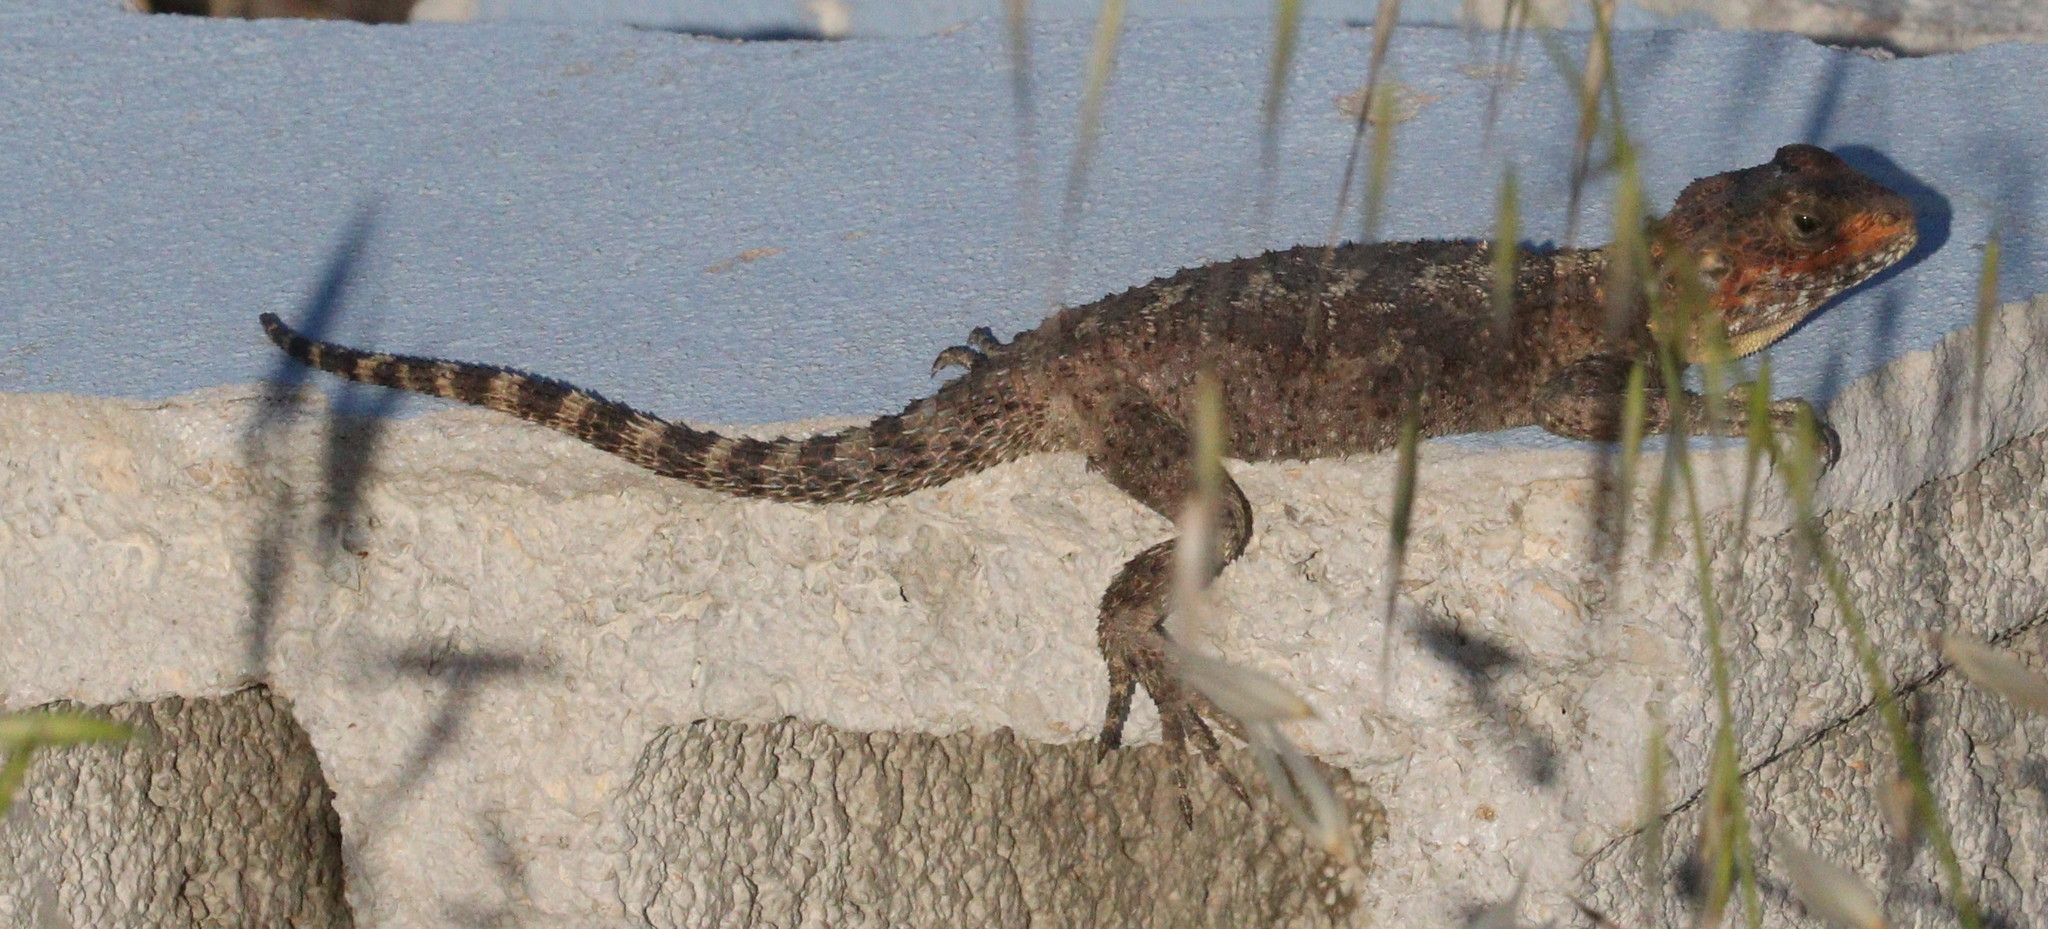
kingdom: Animalia
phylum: Chordata
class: Squamata
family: Agamidae
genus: Stellagama
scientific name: Stellagama stellio
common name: Starred agama
